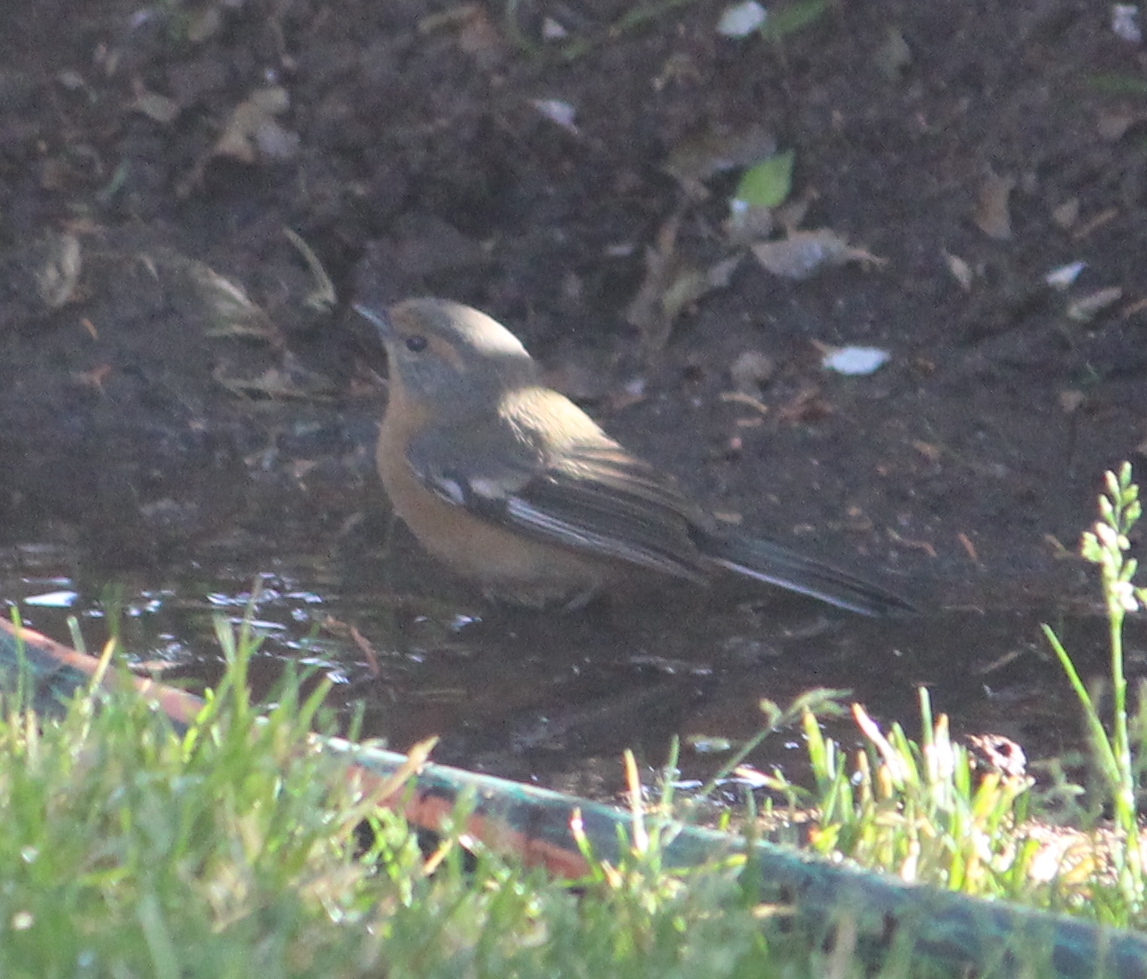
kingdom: Animalia
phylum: Chordata
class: Aves
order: Passeriformes
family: Thraupidae
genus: Microspingus
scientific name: Microspingus erythrophrys
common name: Rusty-browed warbling-finch
